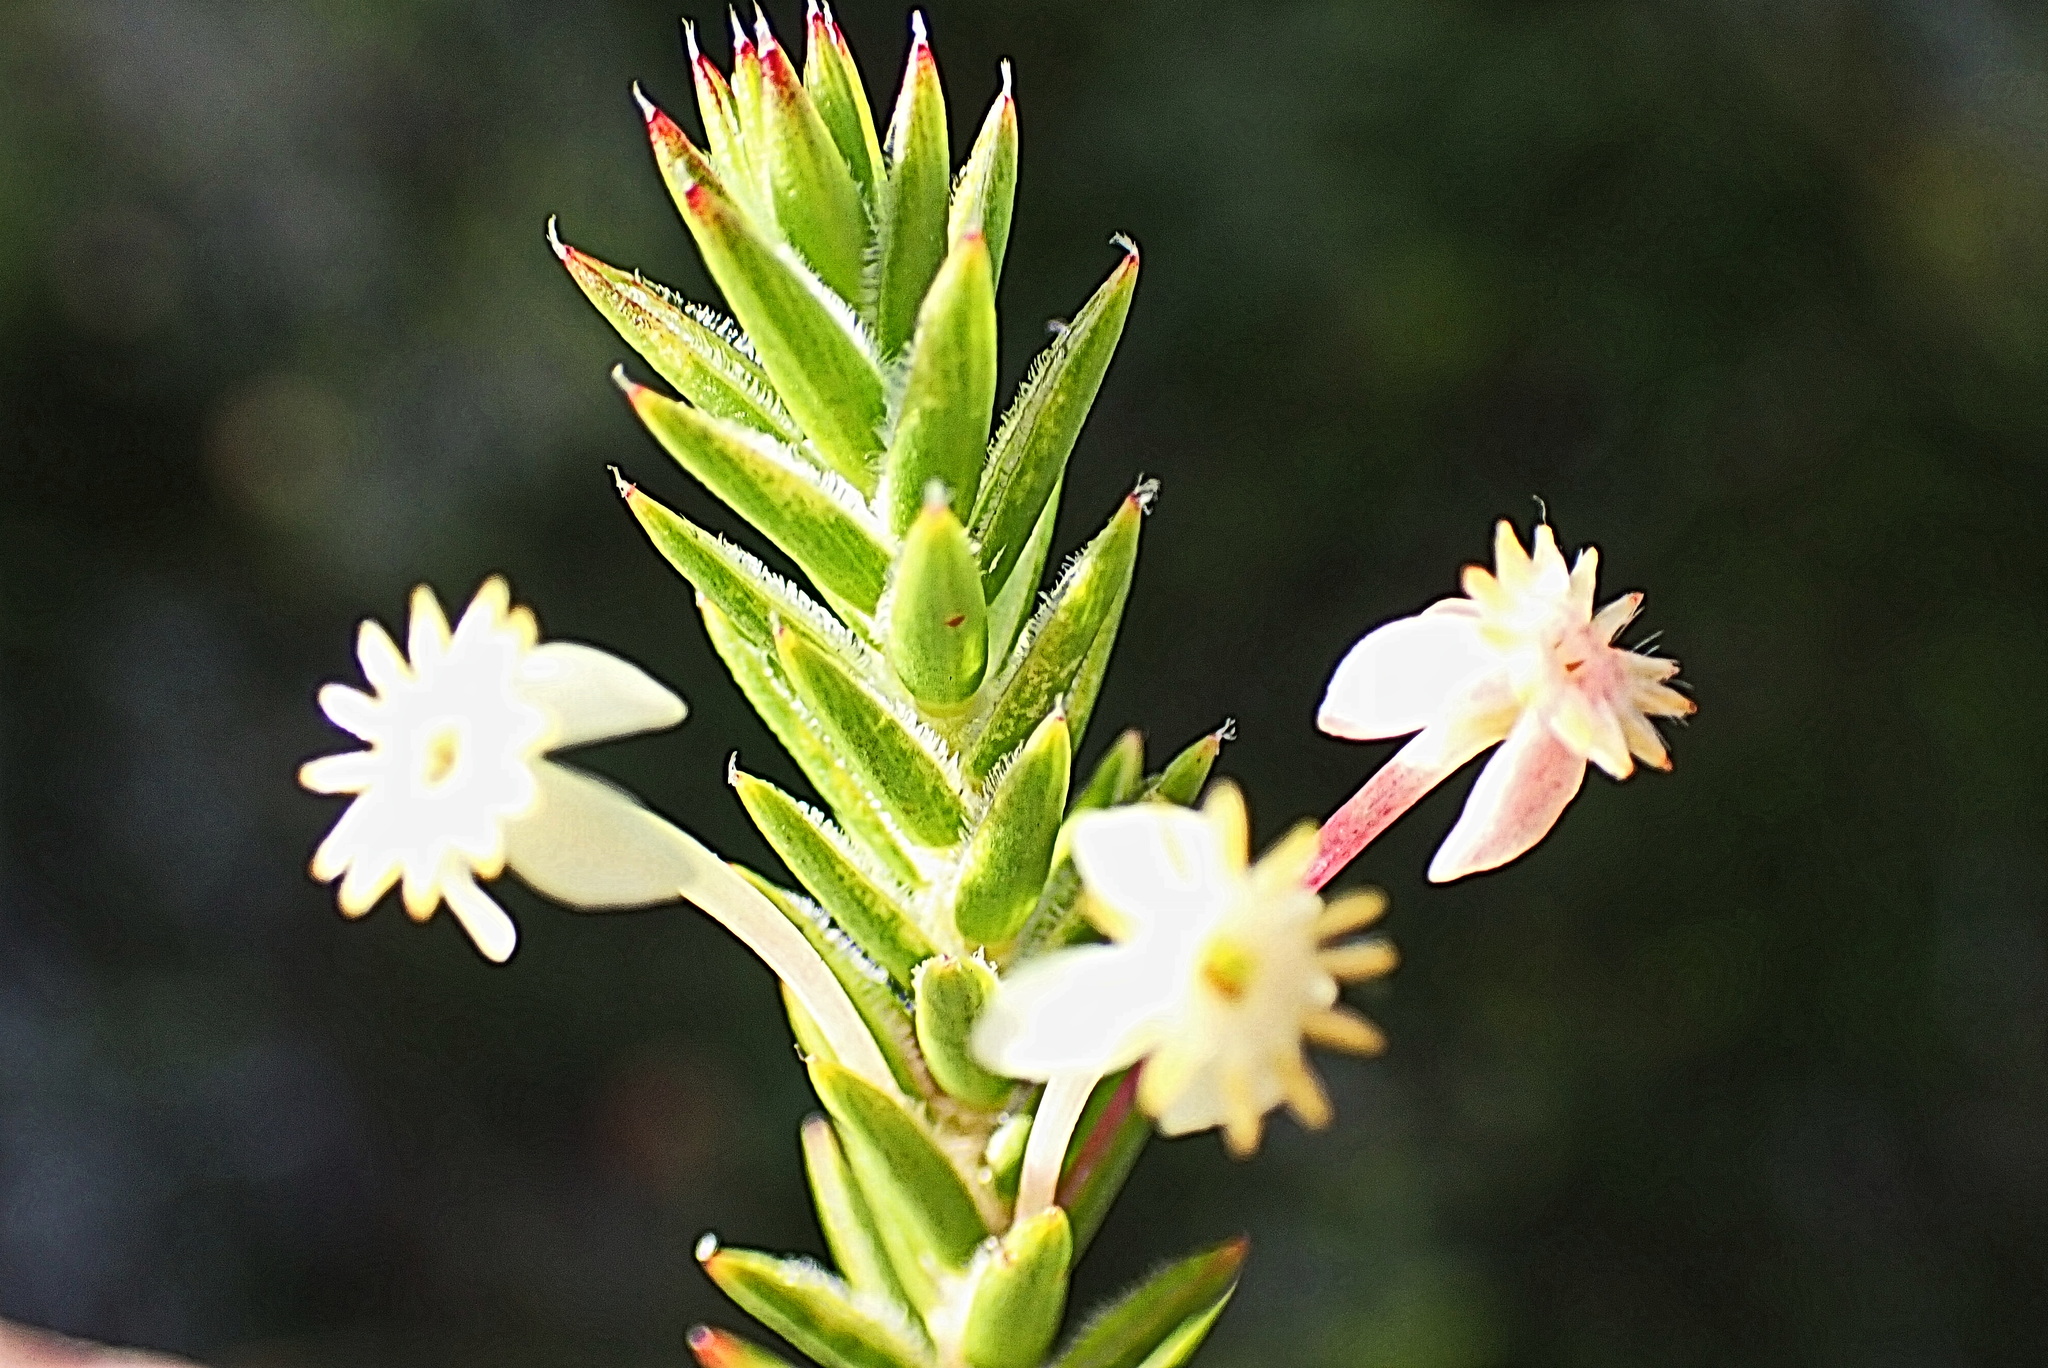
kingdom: Plantae
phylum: Tracheophyta
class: Magnoliopsida
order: Malvales
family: Thymelaeaceae
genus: Struthiola
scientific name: Struthiola rigida
